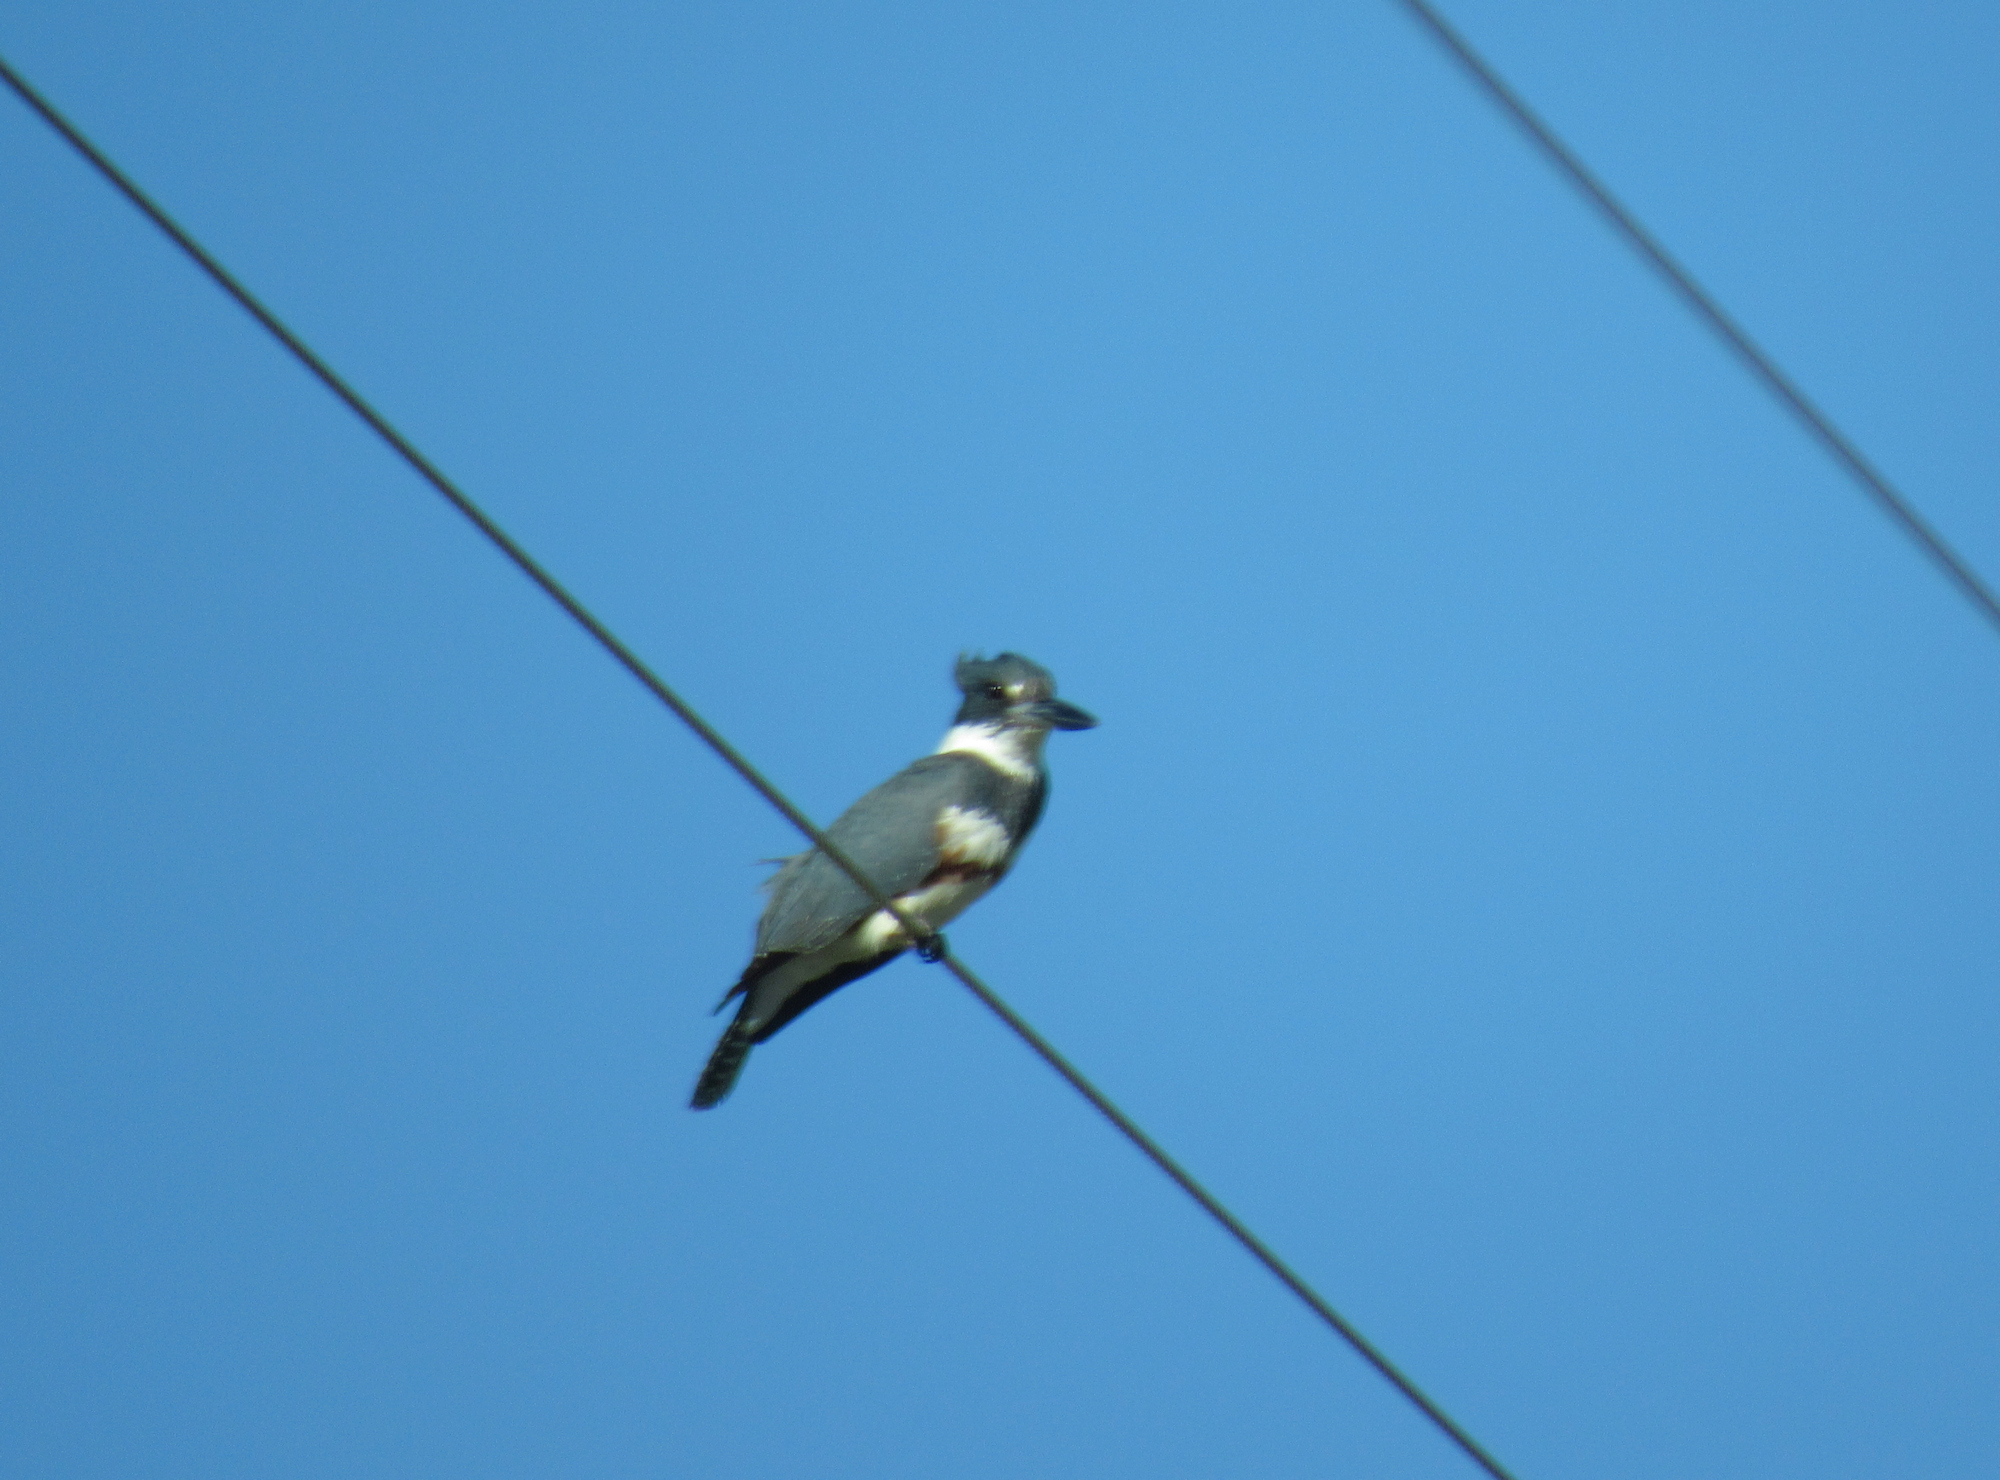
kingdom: Animalia
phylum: Chordata
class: Aves
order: Coraciiformes
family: Alcedinidae
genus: Megaceryle
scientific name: Megaceryle alcyon
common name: Belted kingfisher
